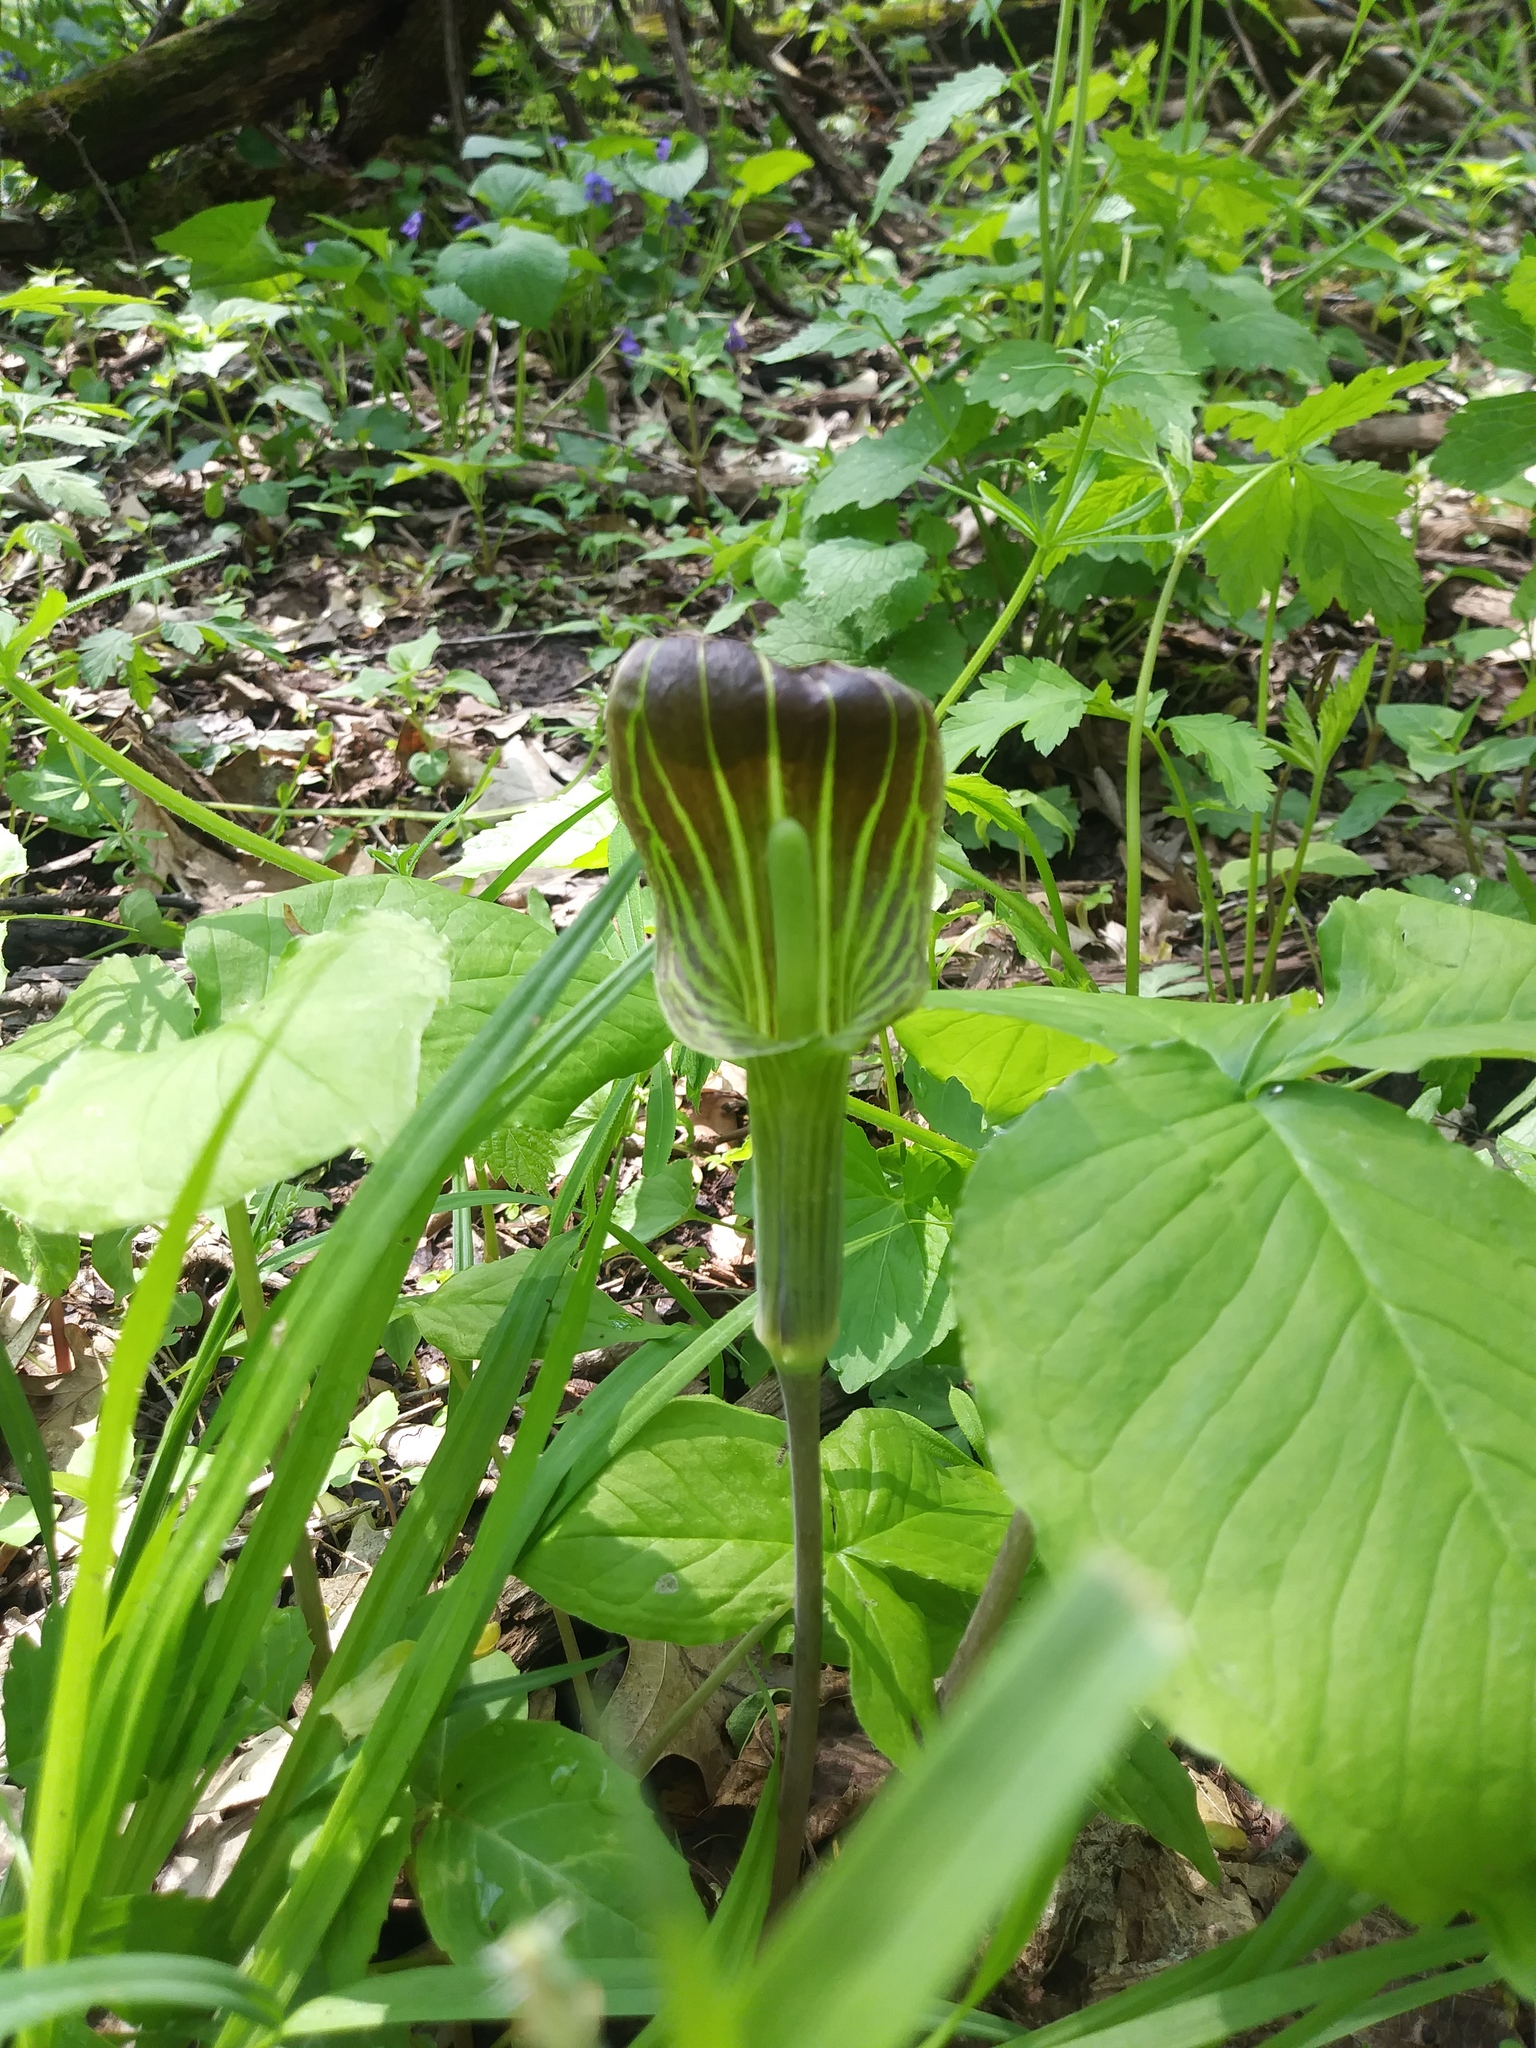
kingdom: Plantae
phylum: Tracheophyta
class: Liliopsida
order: Alismatales
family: Araceae
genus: Arisaema
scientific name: Arisaema triphyllum
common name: Jack-in-the-pulpit
